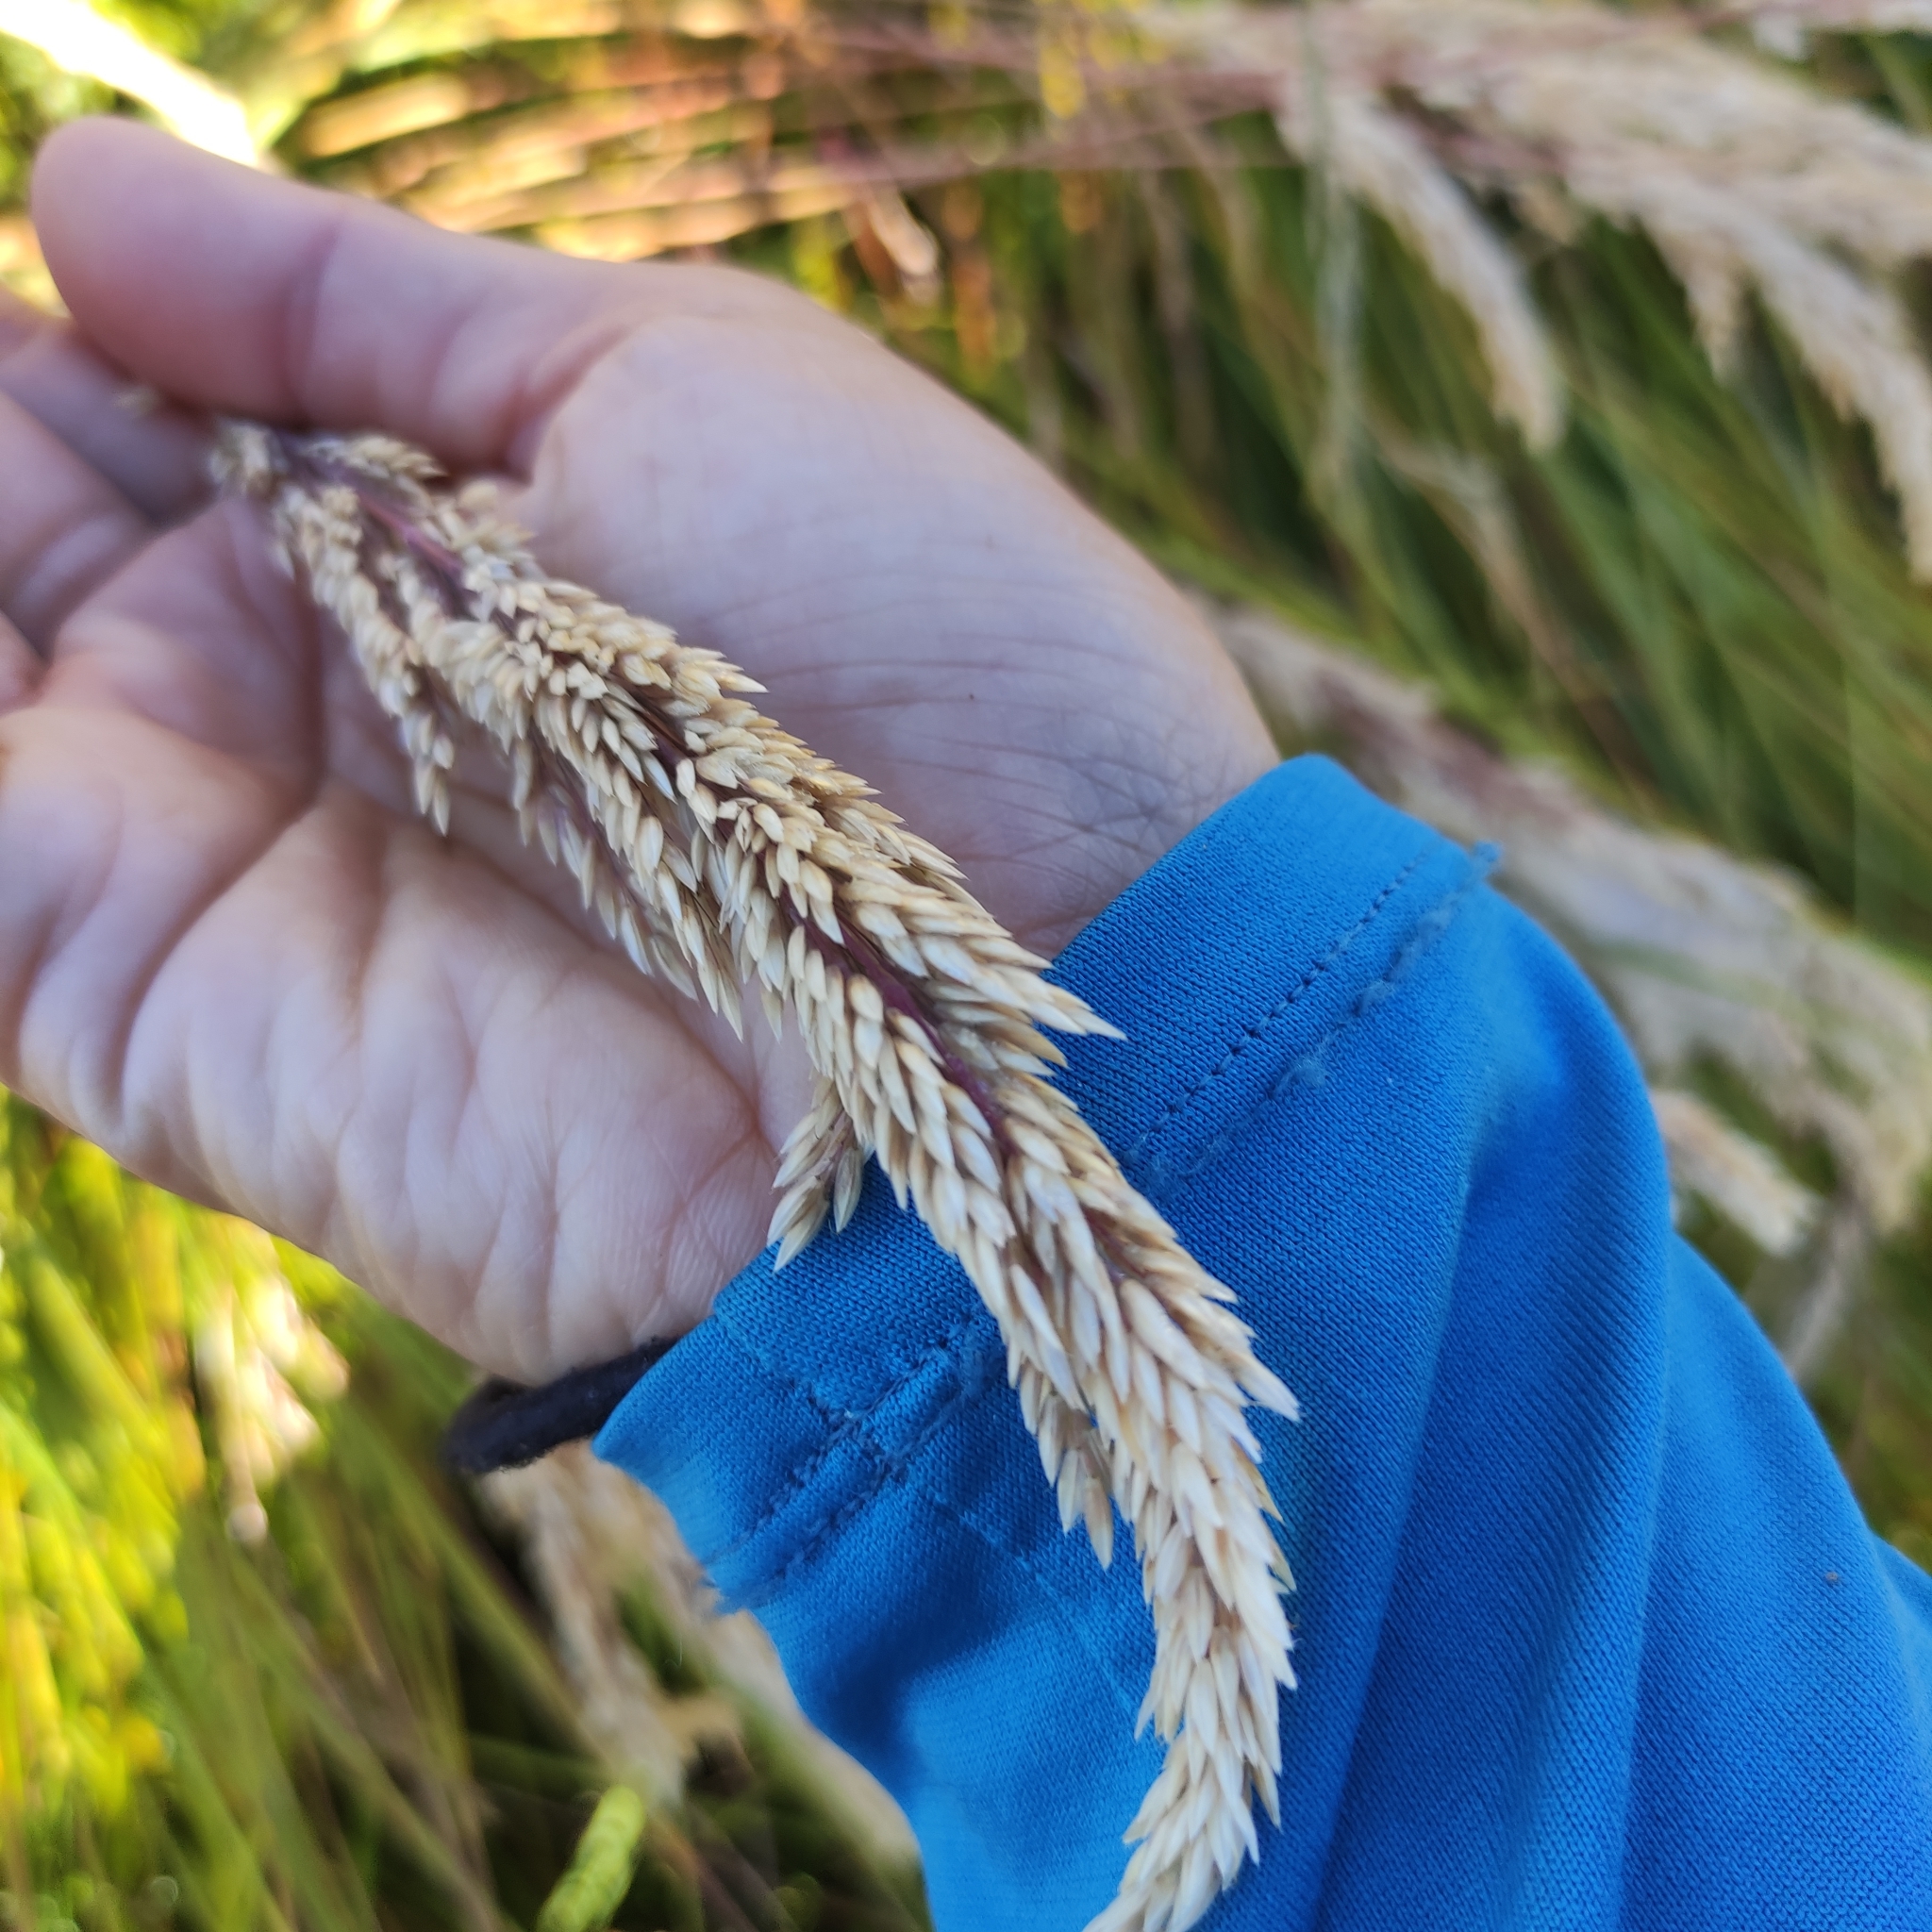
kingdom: Plantae
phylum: Tracheophyta
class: Liliopsida
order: Poales
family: Poaceae
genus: Holcus
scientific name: Holcus lanatus
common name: Yorkshire-fog
